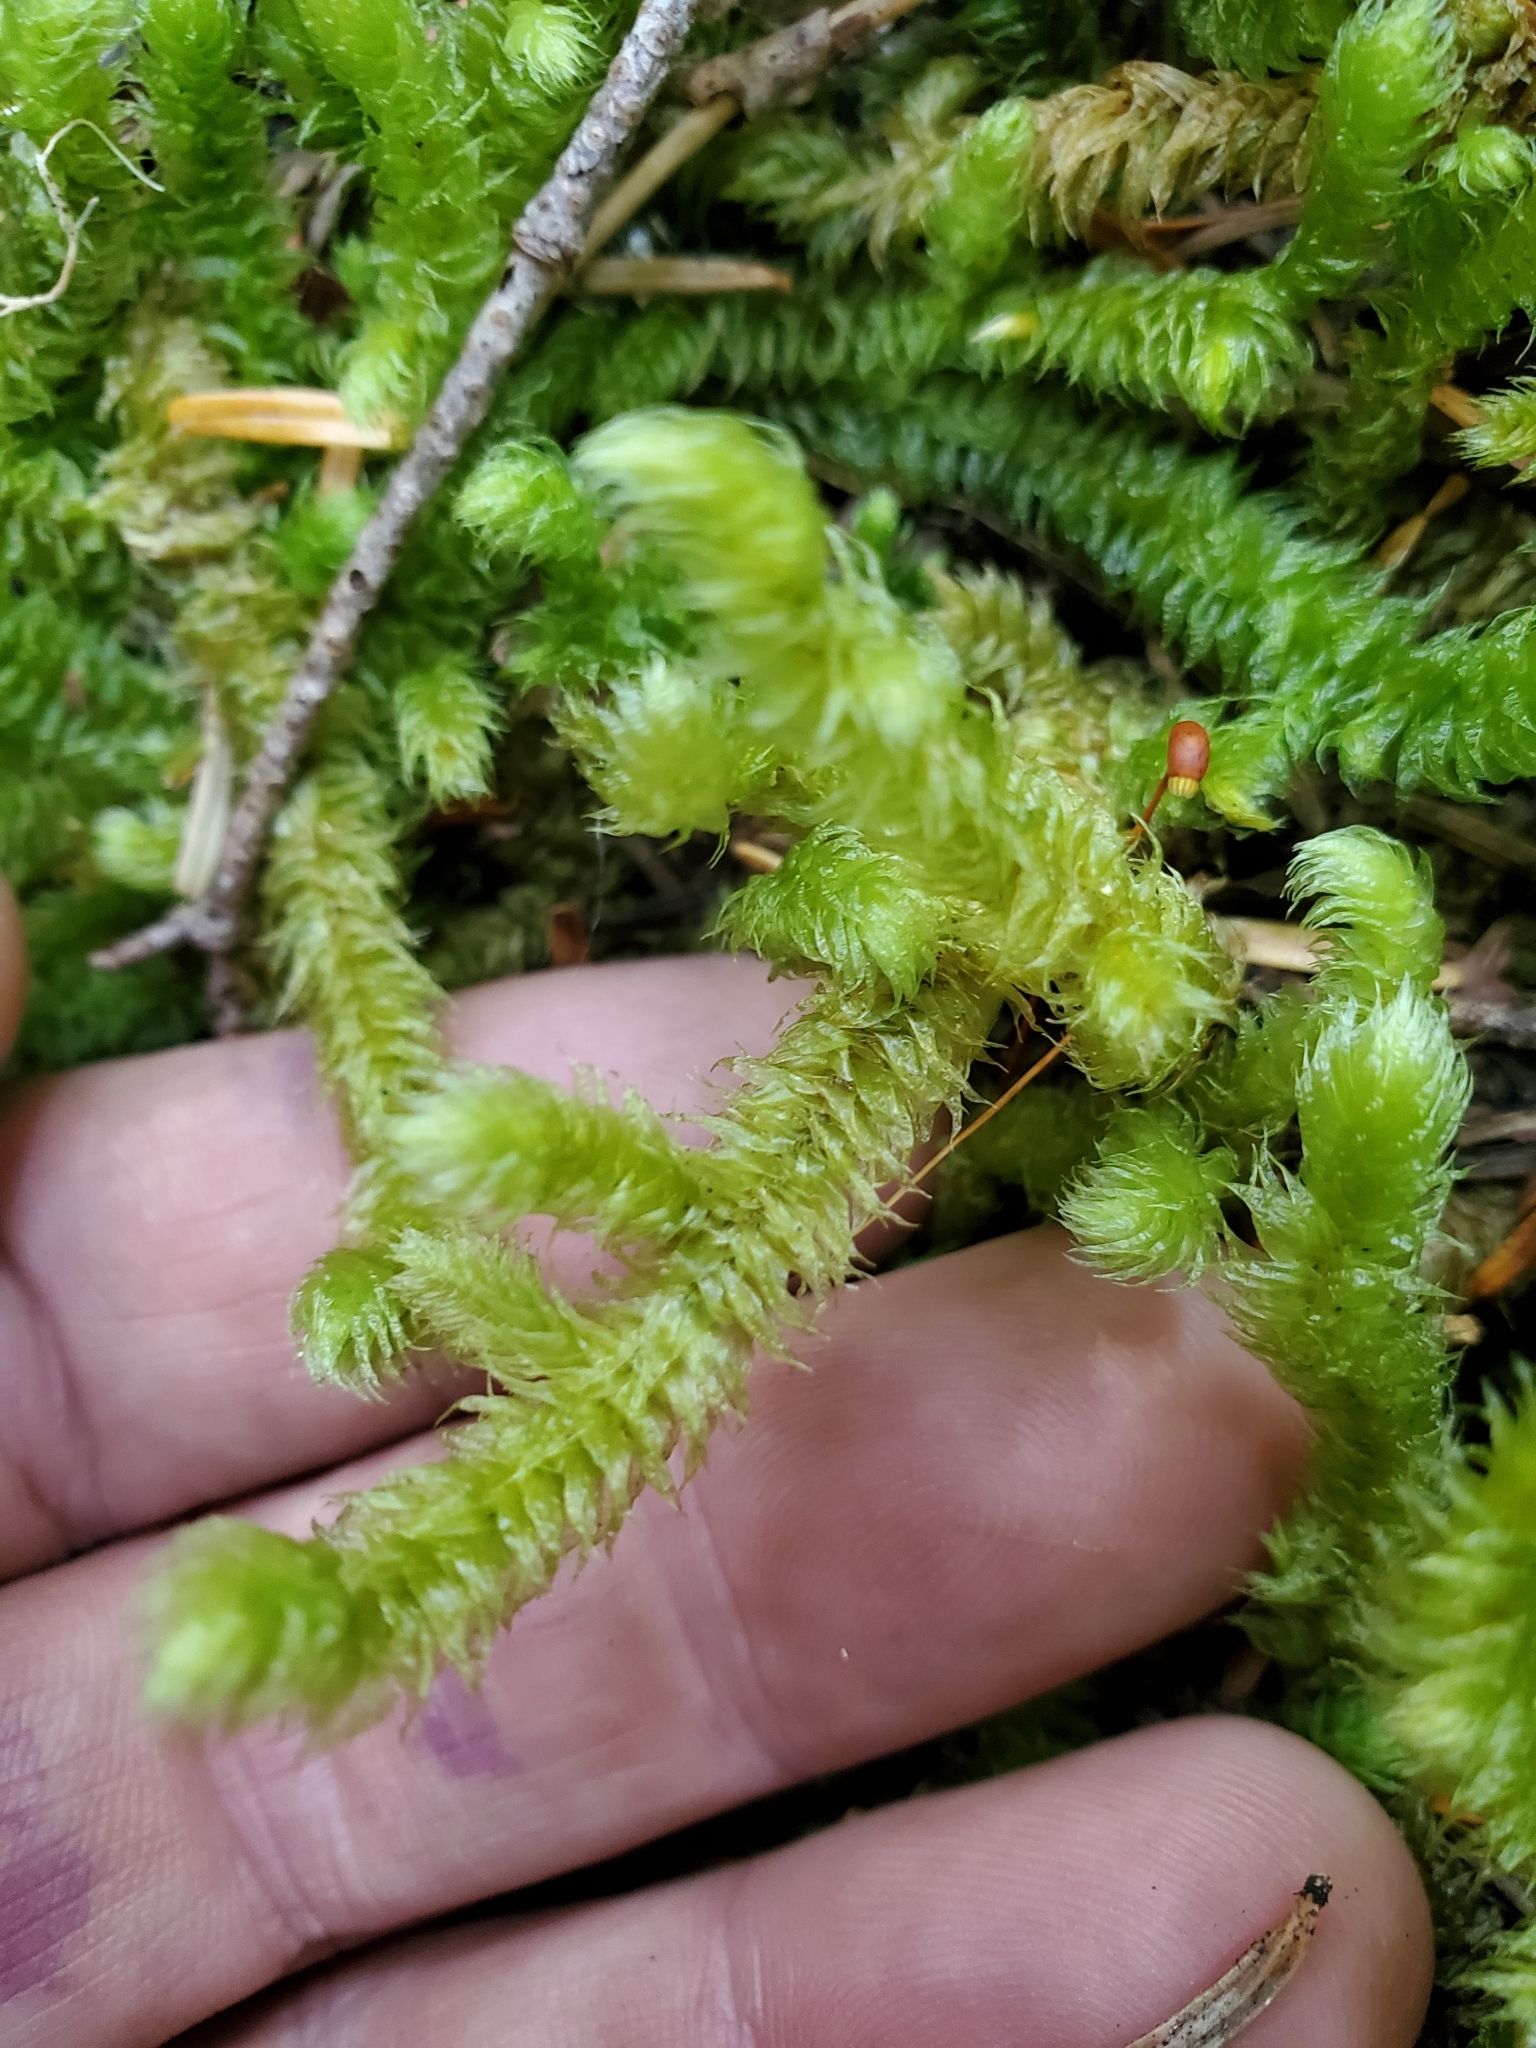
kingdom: Plantae
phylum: Bryophyta
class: Bryopsida
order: Hypnales
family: Hylocomiaceae
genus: Rhytidiopsis
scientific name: Rhytidiopsis robusta
